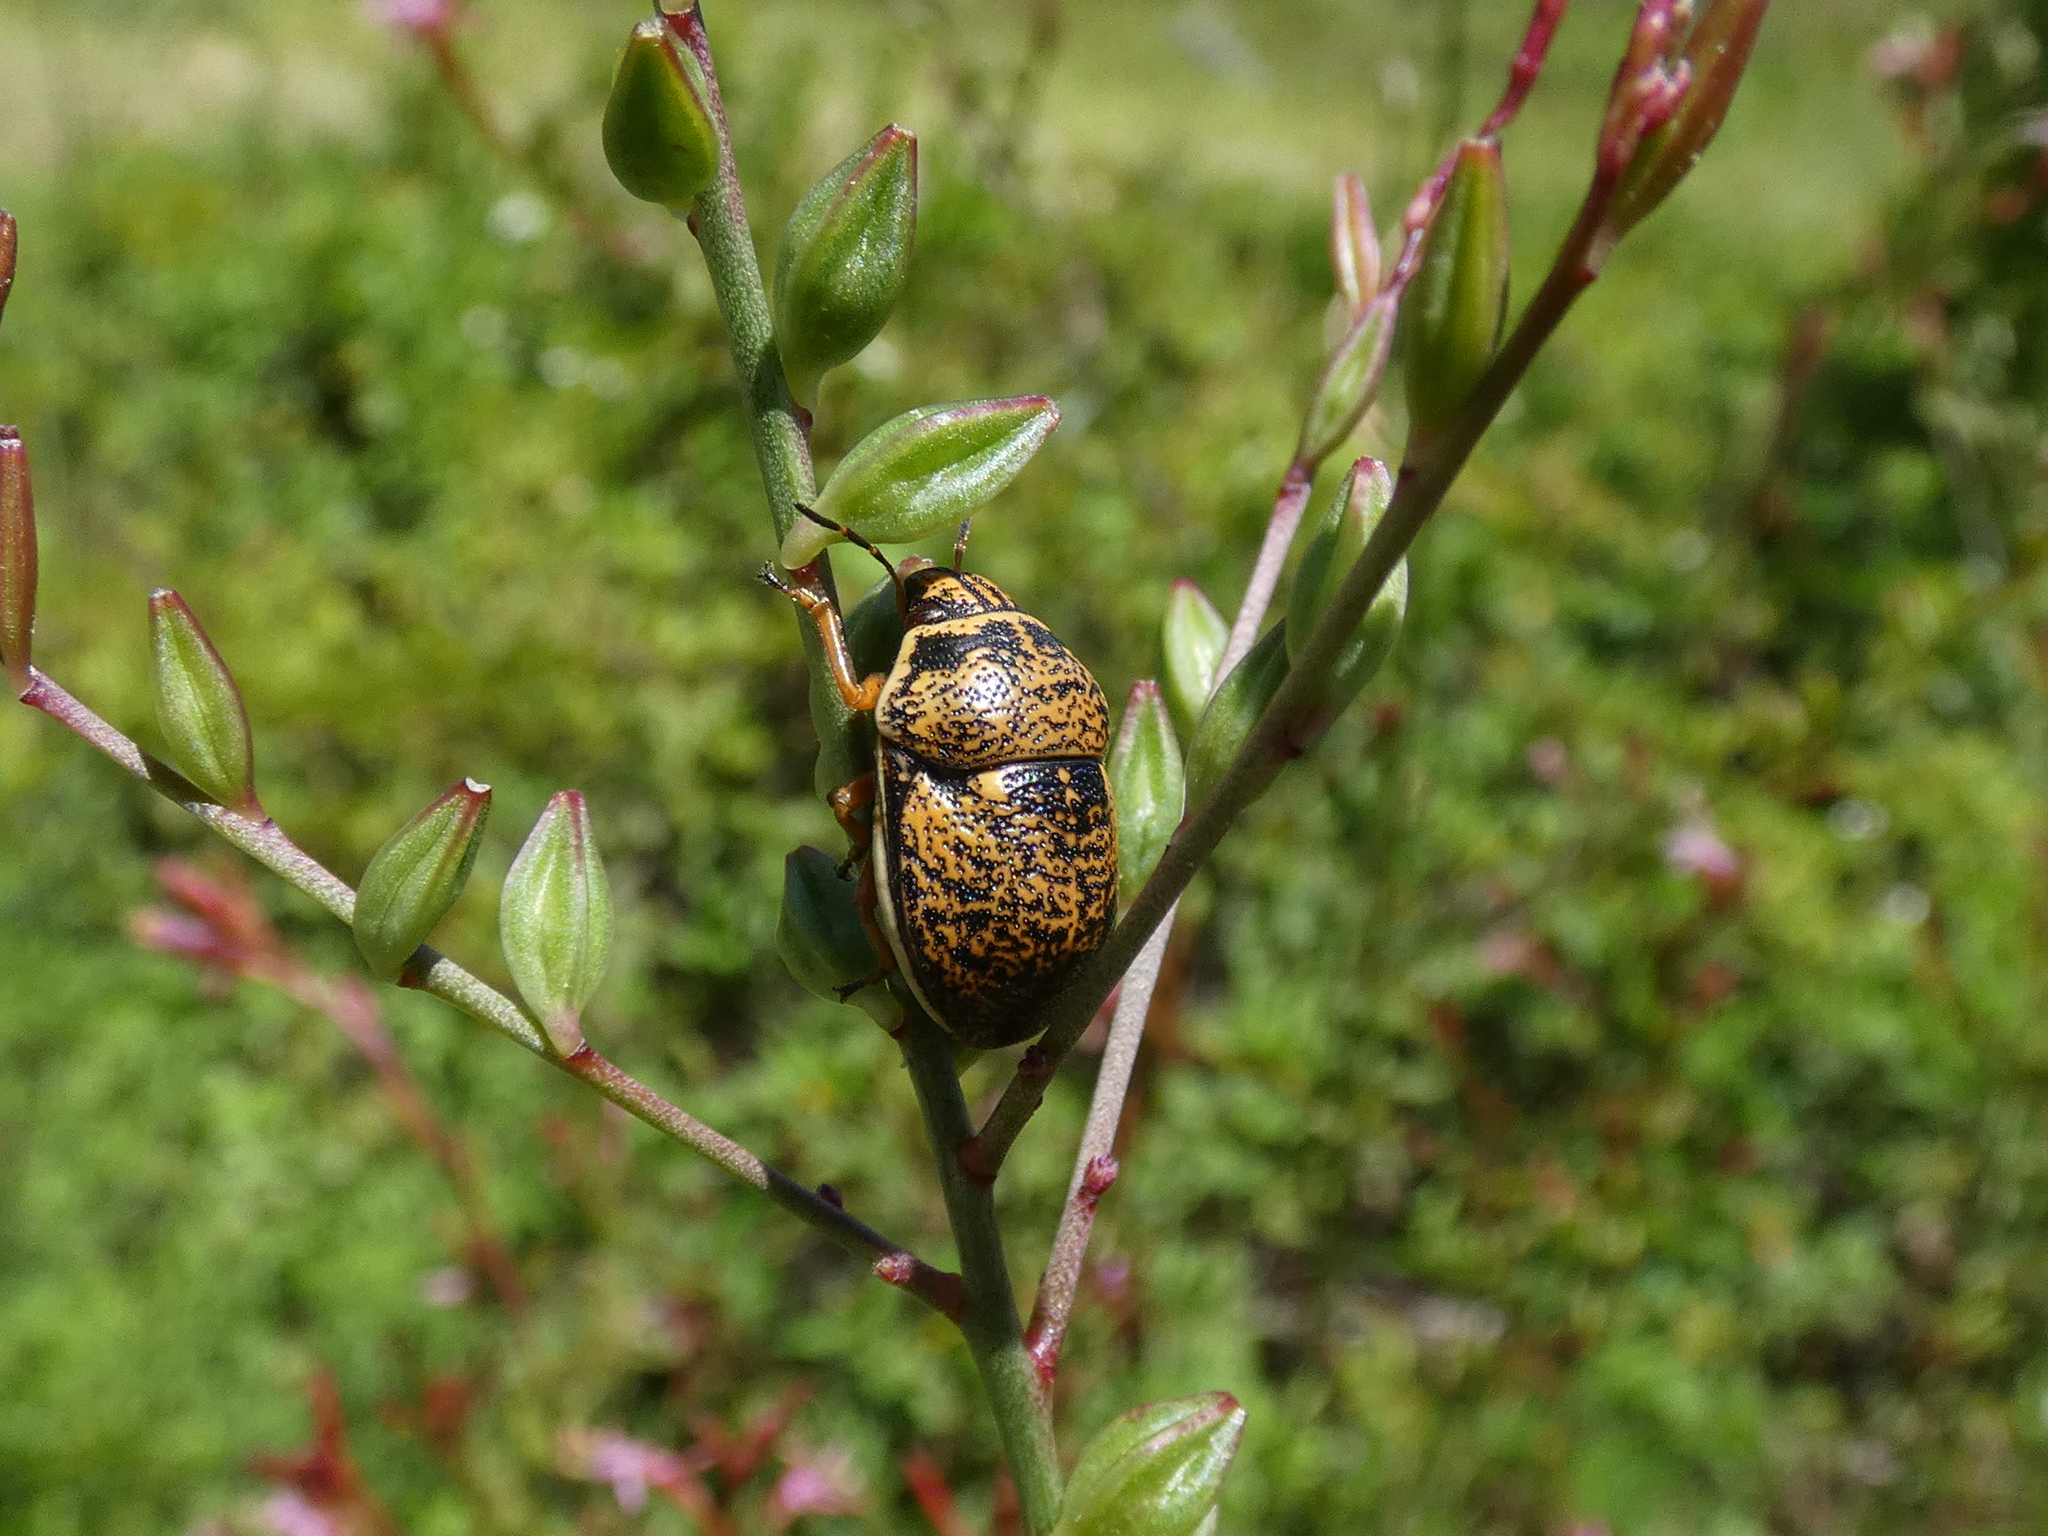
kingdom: Animalia
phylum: Arthropoda
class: Insecta
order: Hemiptera
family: Scutelleridae
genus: Orsilochides
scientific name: Orsilochides guttata
